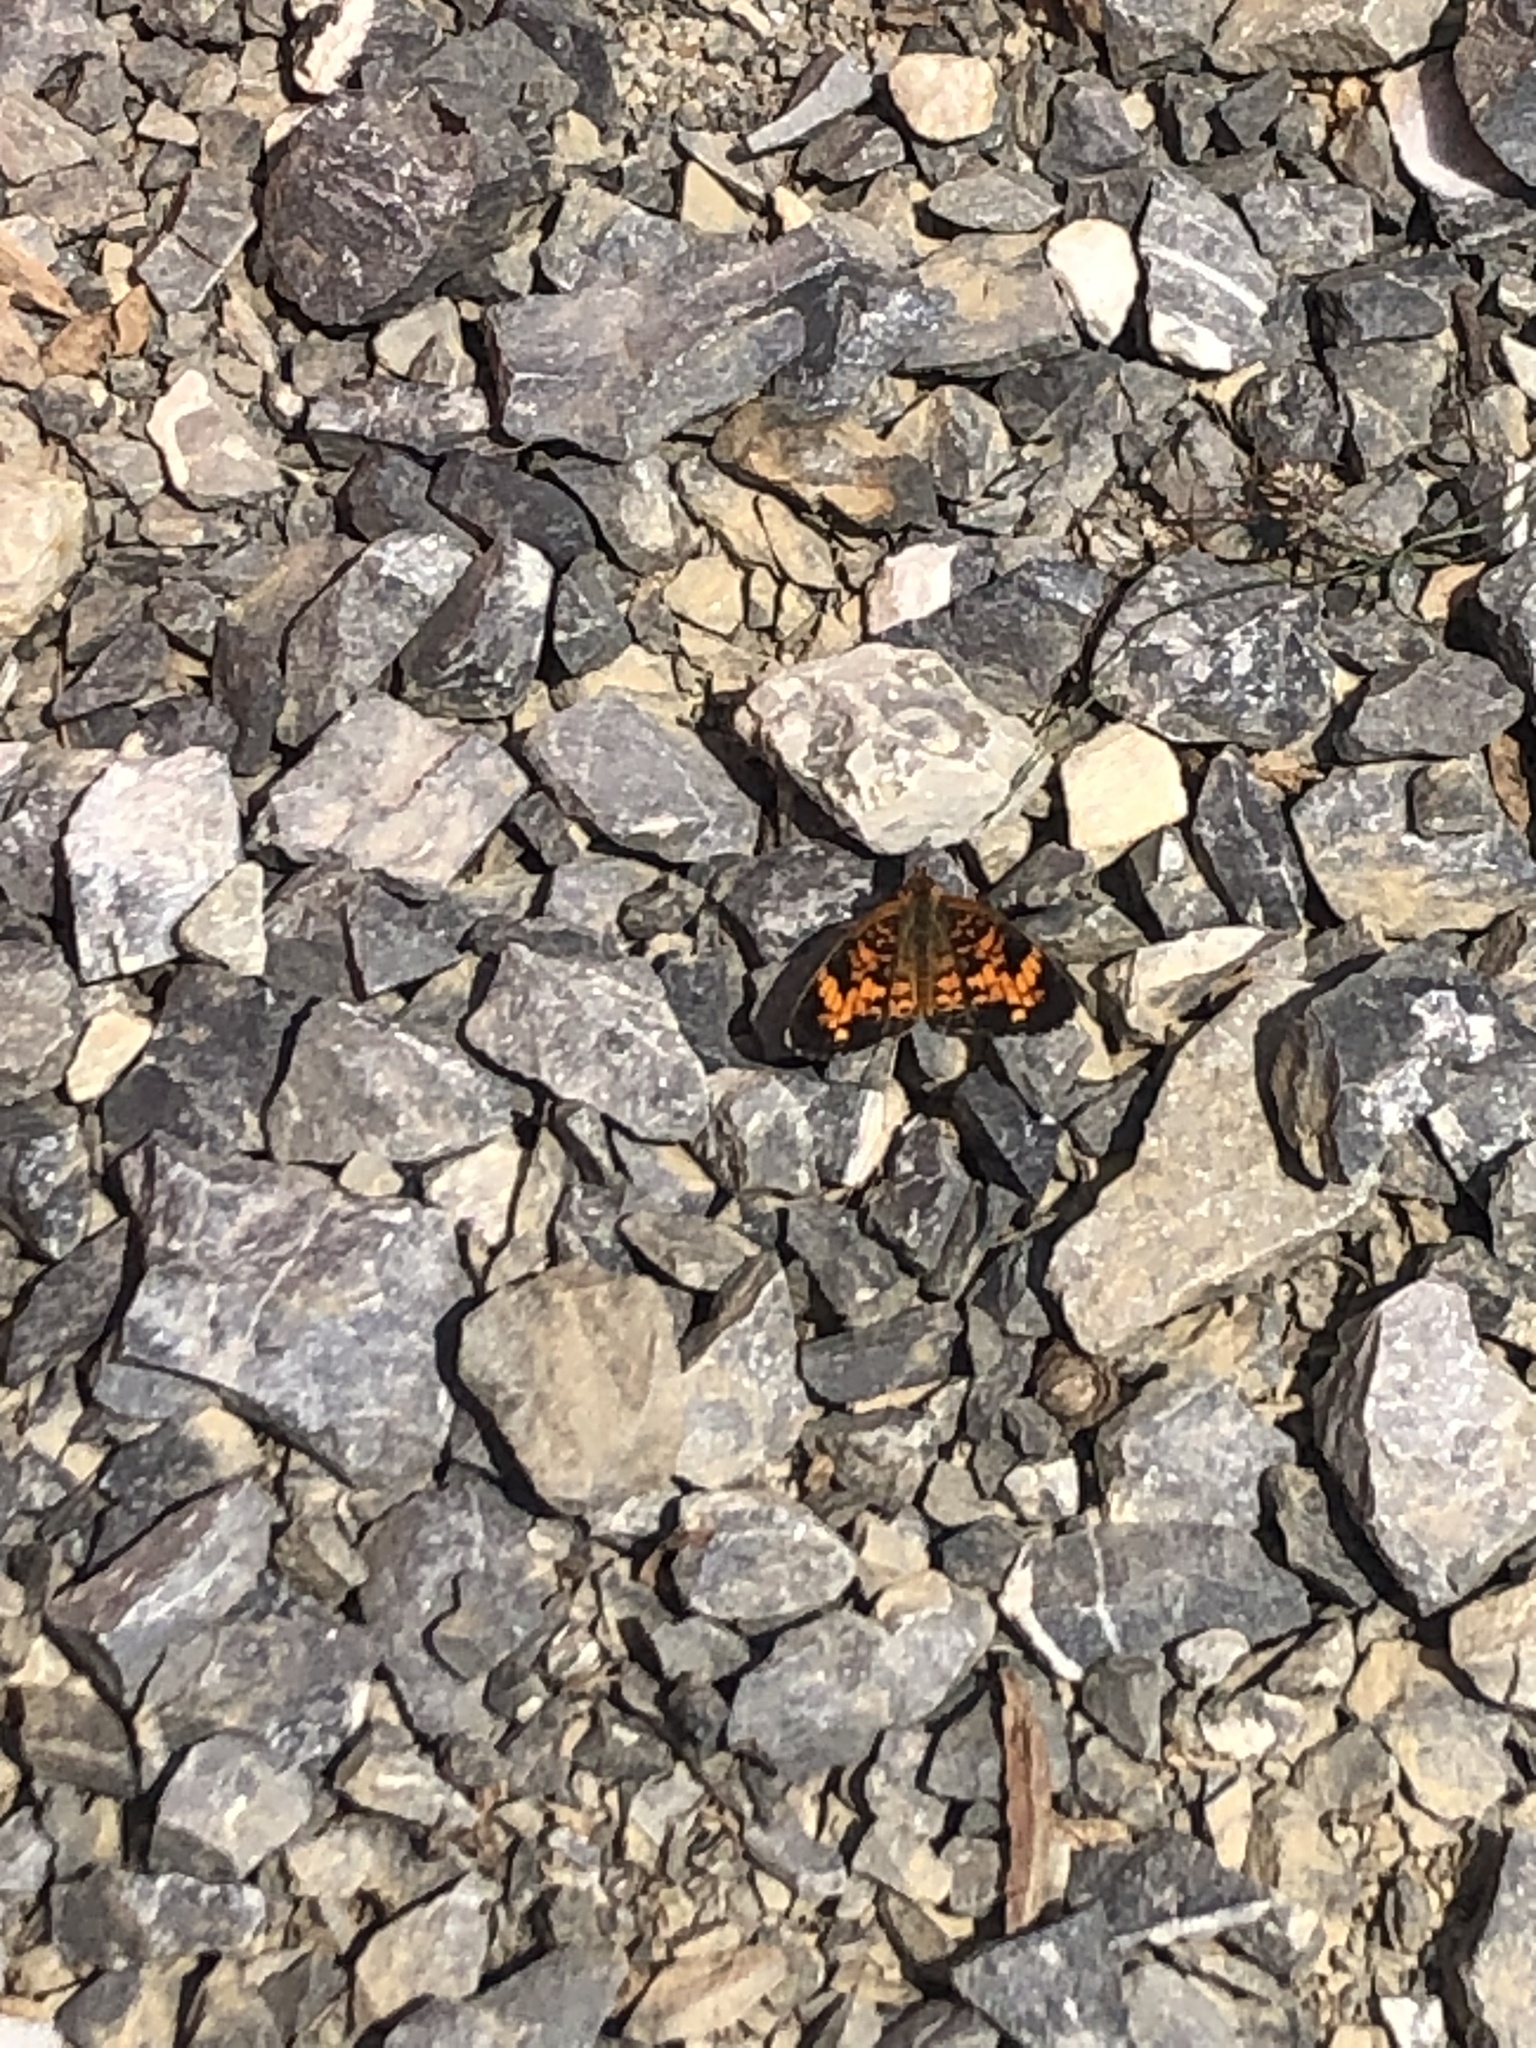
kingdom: Animalia
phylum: Arthropoda
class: Insecta
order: Lepidoptera
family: Nymphalidae
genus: Phyciodes
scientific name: Phyciodes tharos
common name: Pearl crescent
